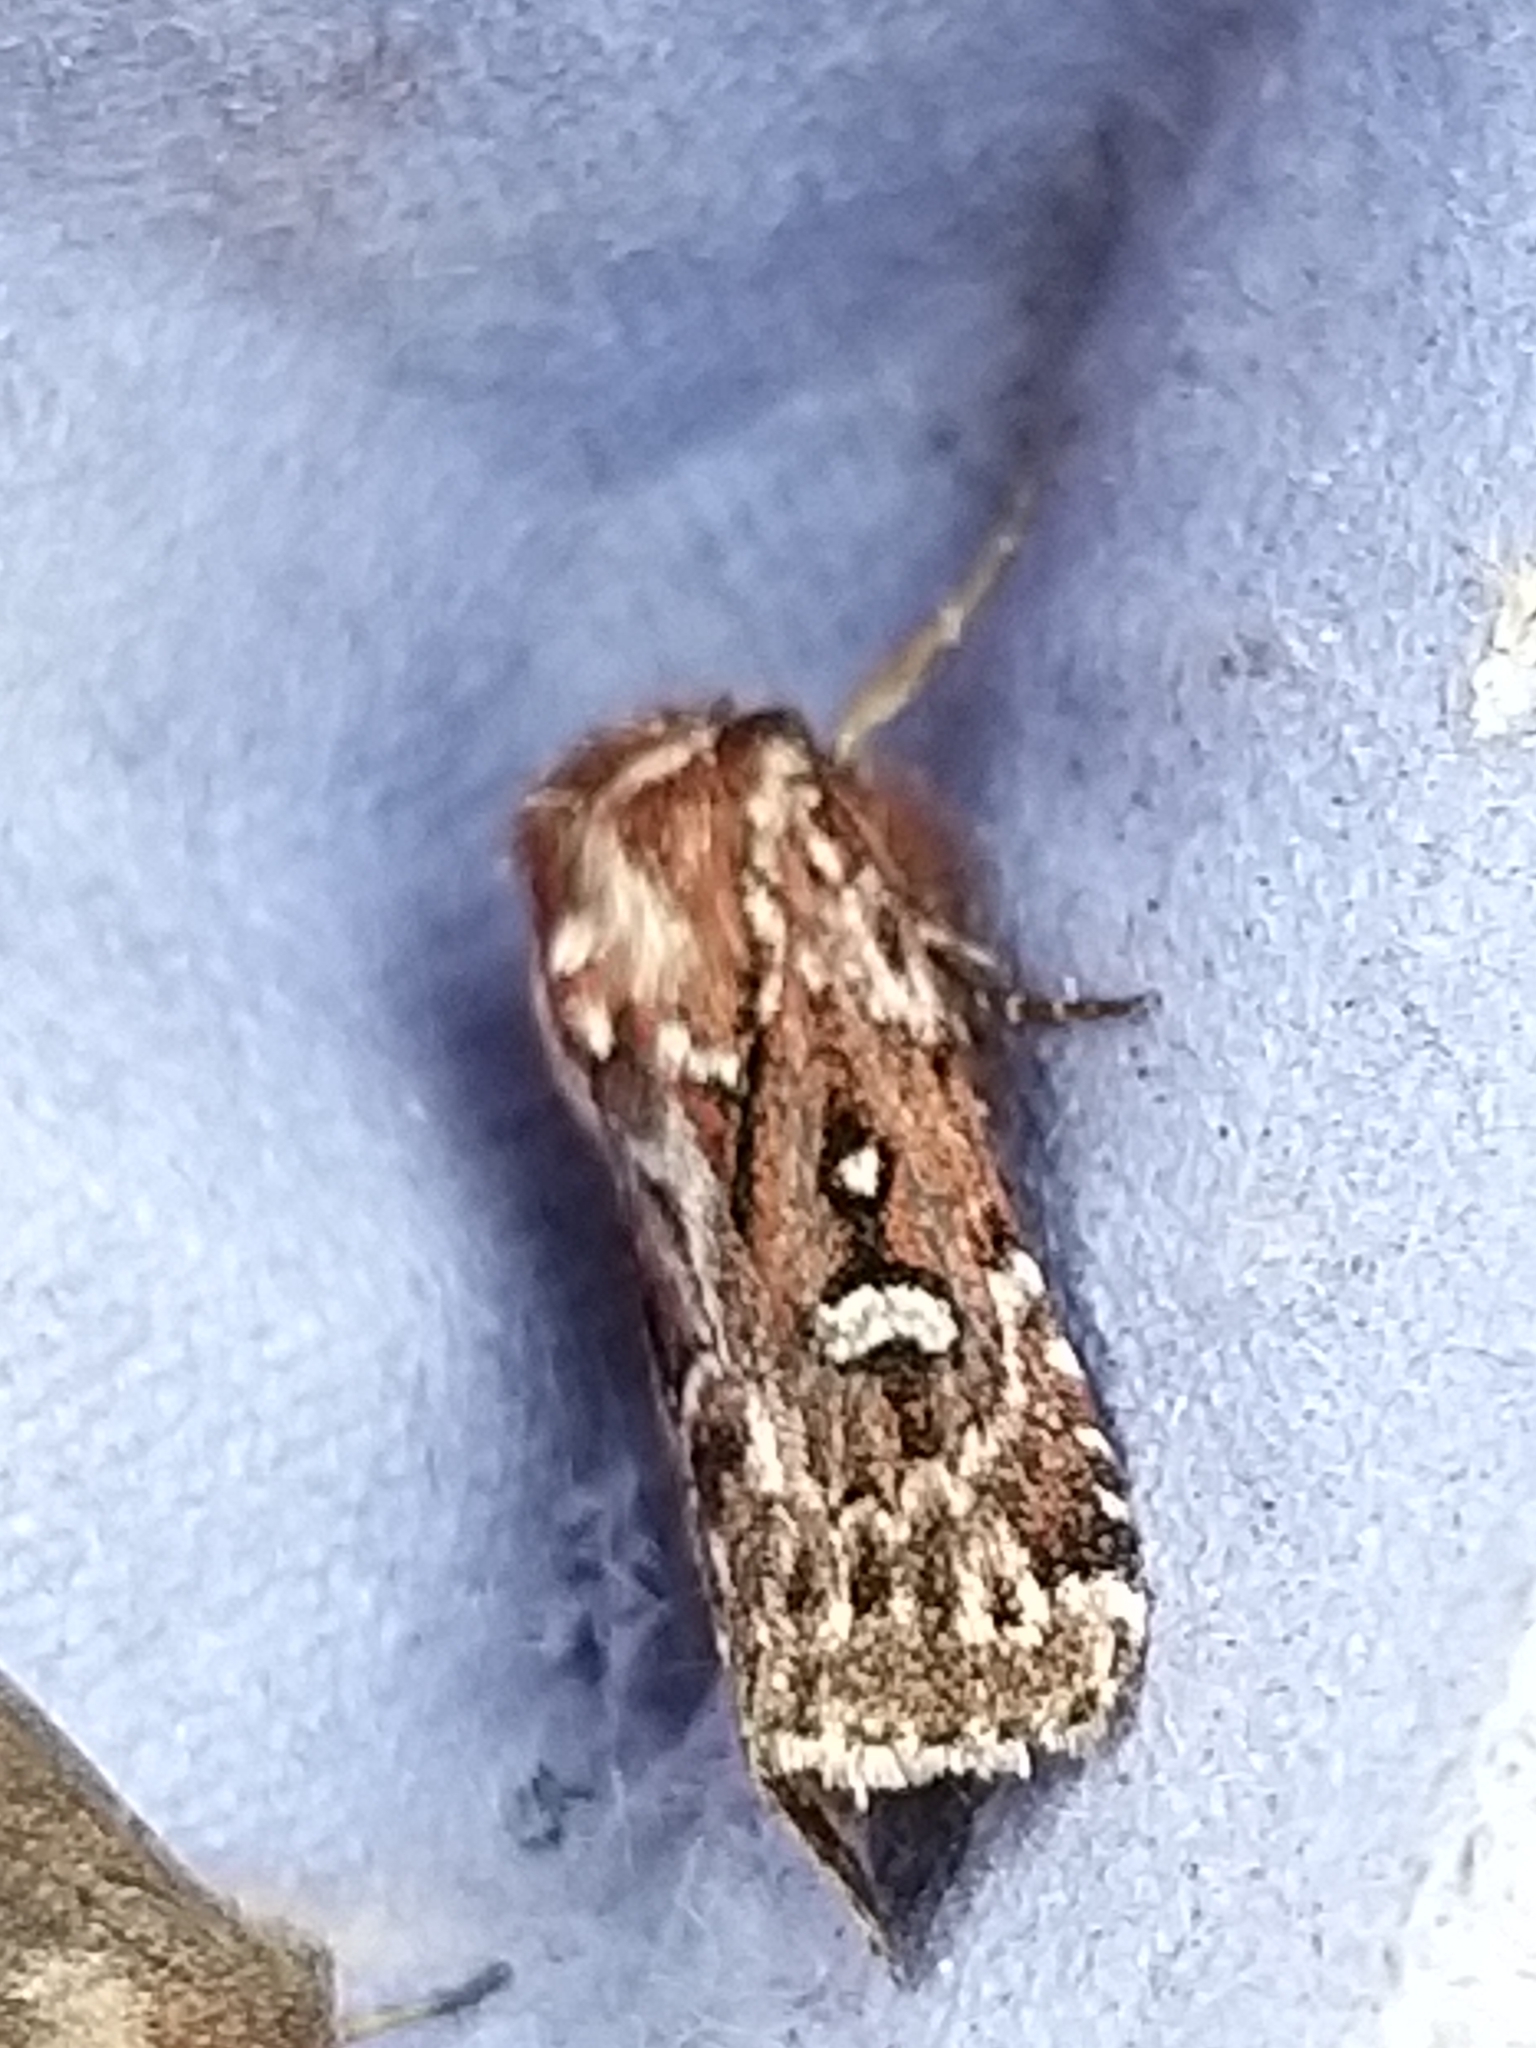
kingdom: Animalia
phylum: Arthropoda
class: Insecta
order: Lepidoptera
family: Noctuidae
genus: Lycophotia
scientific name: Lycophotia porphyrea
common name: True lover's knot
